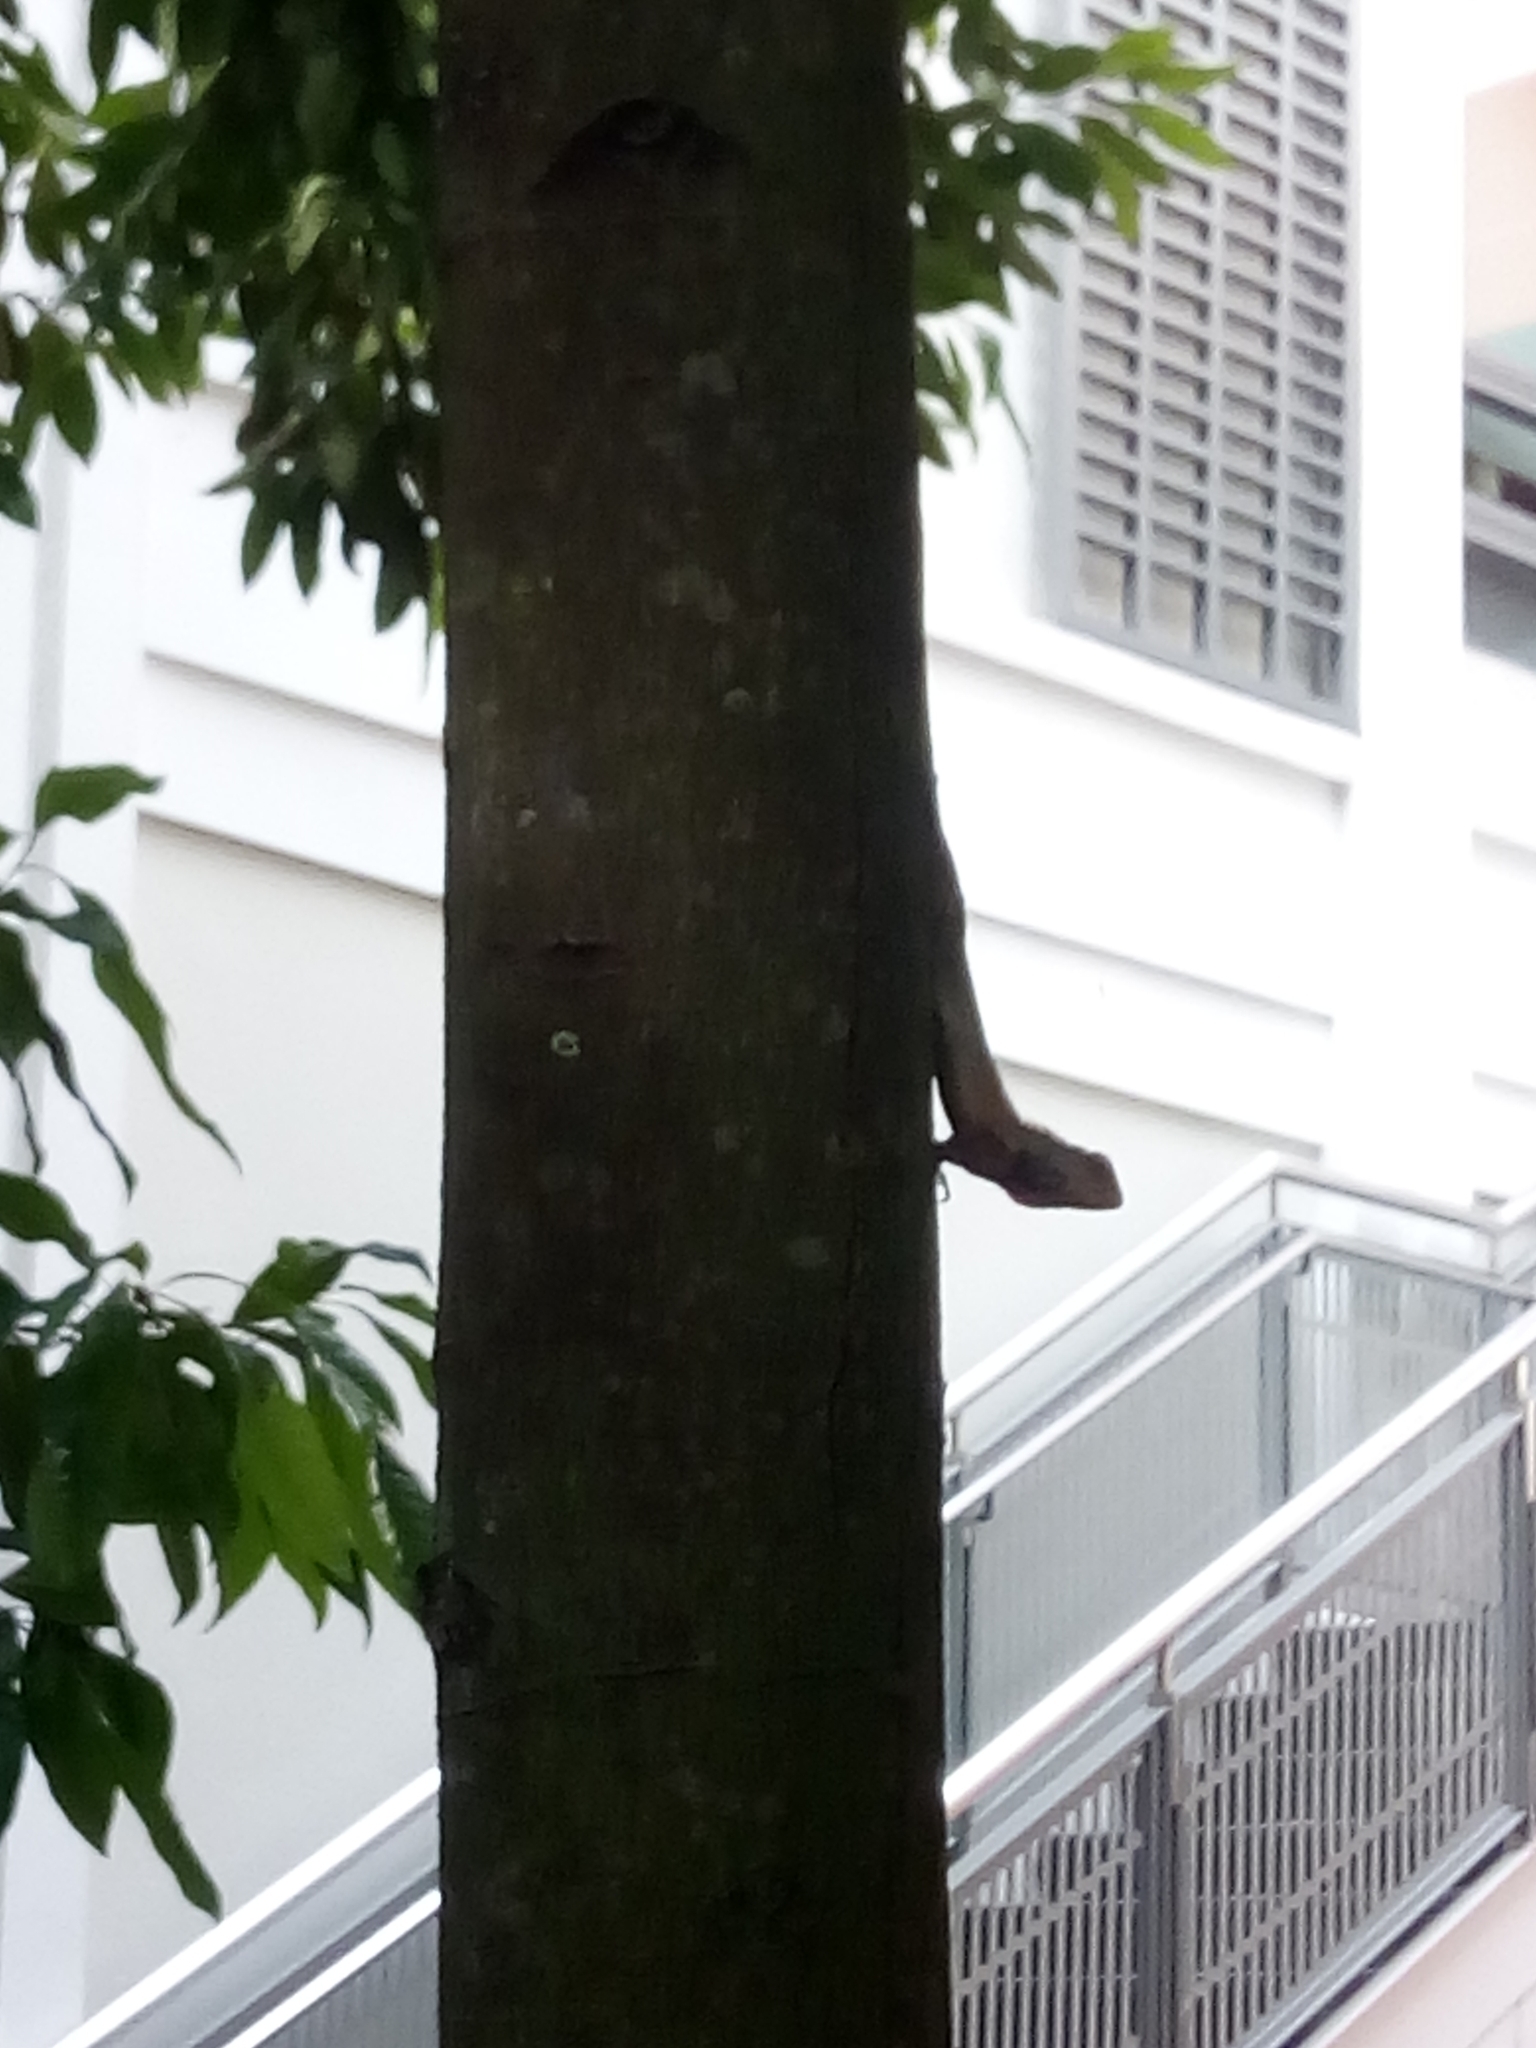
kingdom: Animalia
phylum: Chordata
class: Squamata
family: Agamidae
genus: Calotes
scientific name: Calotes versicolor
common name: Oriental garden lizard
